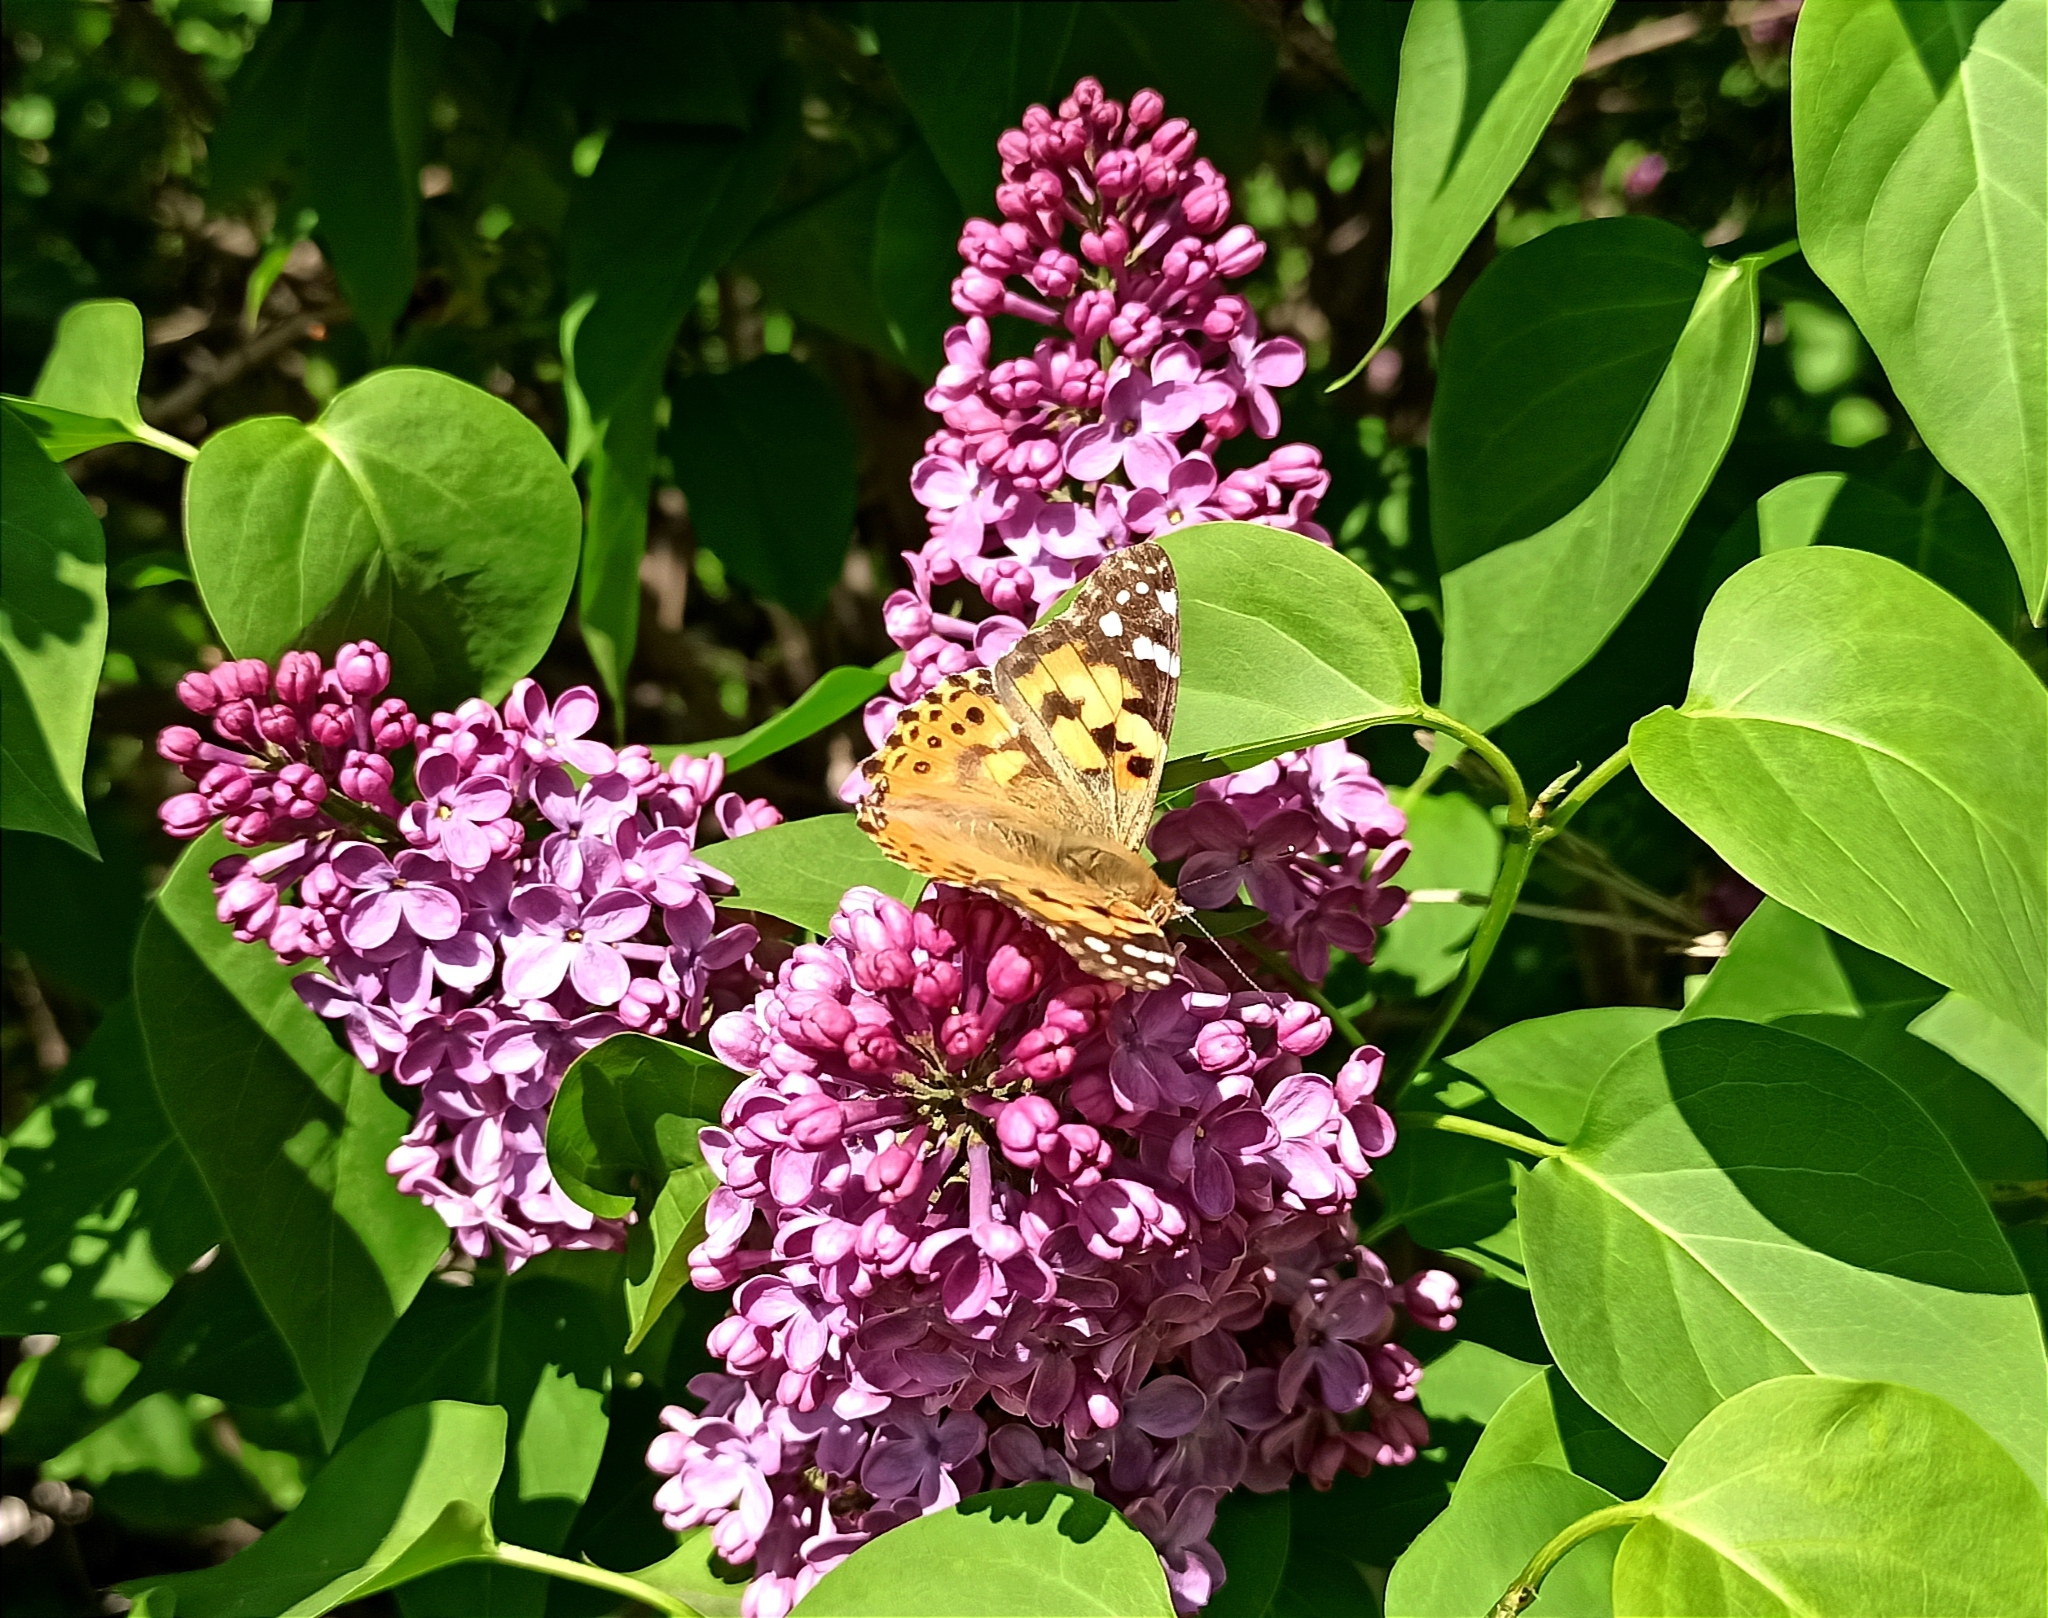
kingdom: Animalia
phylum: Arthropoda
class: Insecta
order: Lepidoptera
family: Nymphalidae
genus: Vanessa
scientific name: Vanessa cardui
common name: Painted lady
